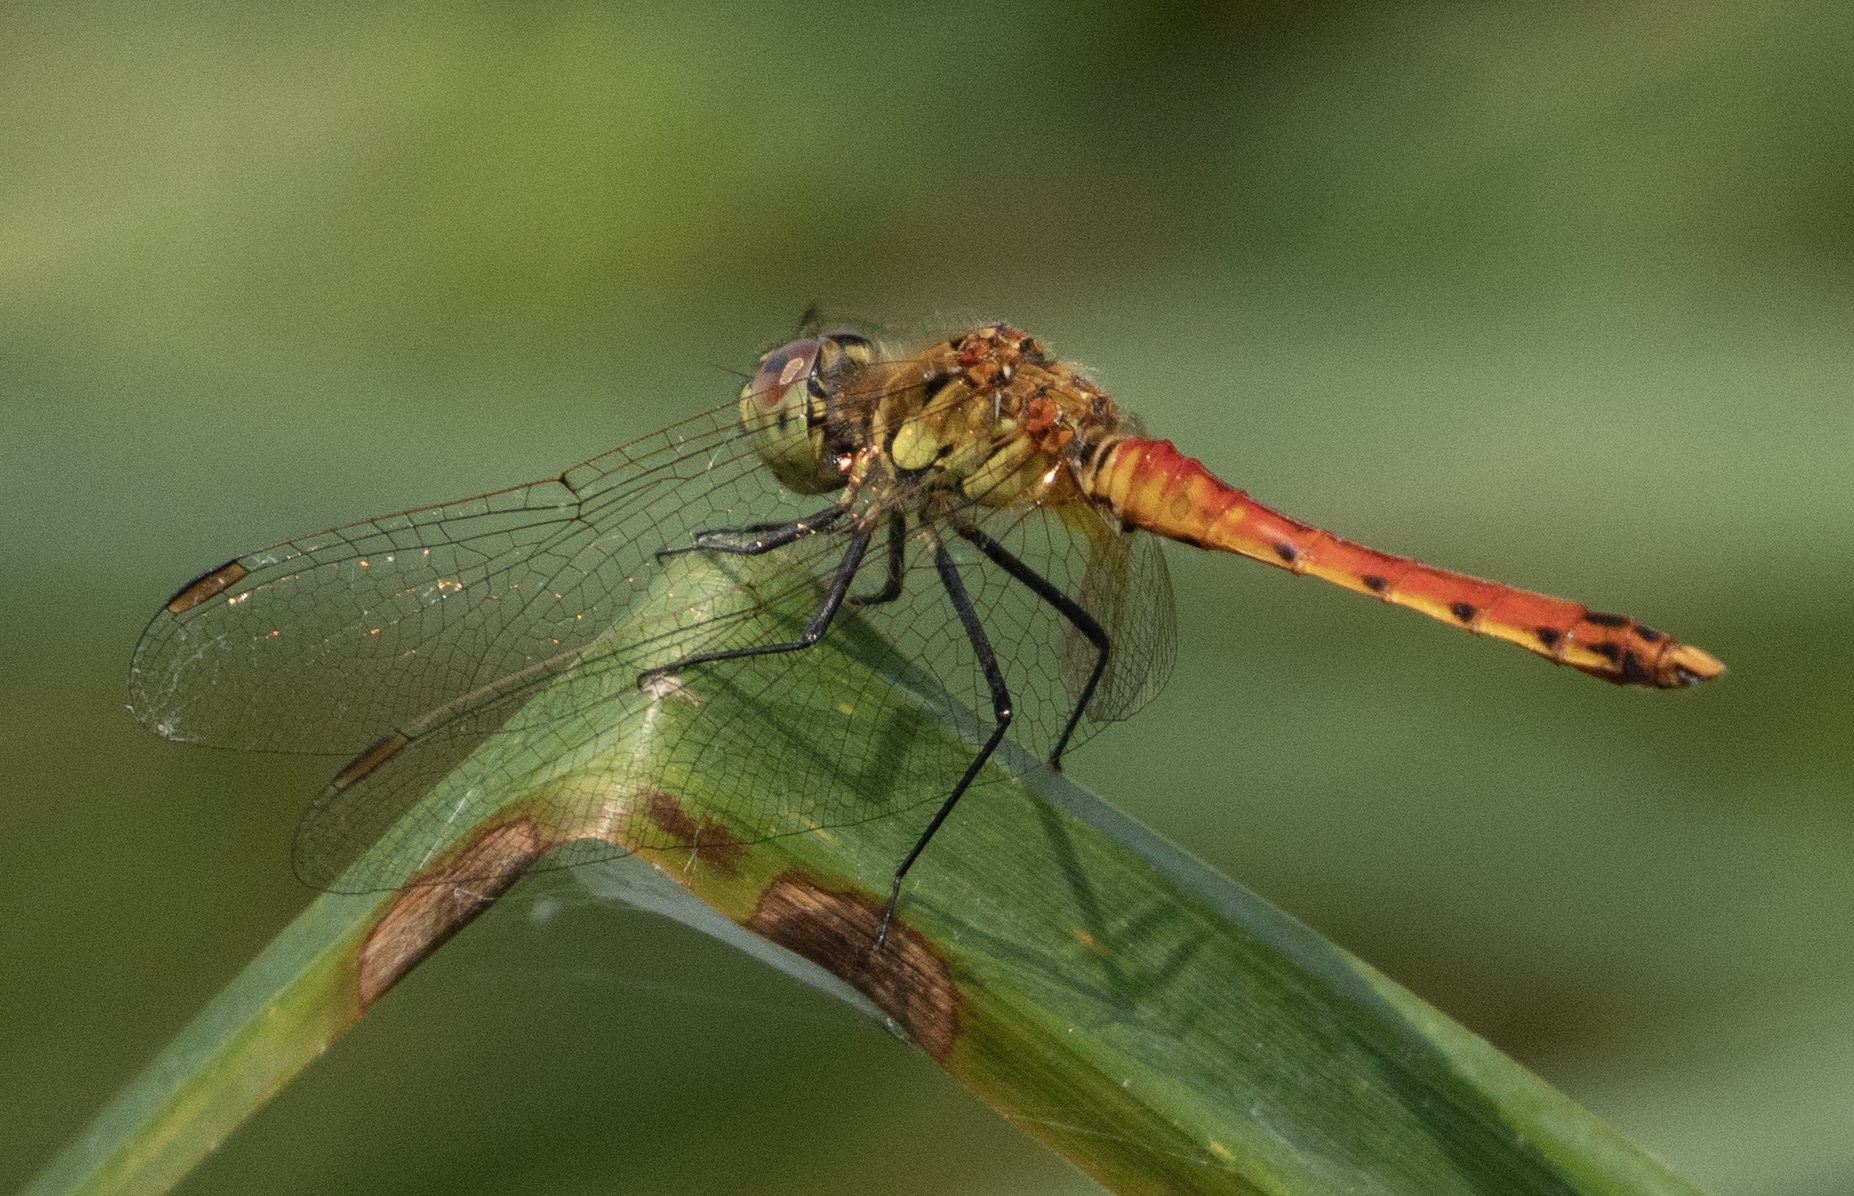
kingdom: Animalia
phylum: Arthropoda
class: Insecta
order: Odonata
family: Libellulidae
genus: Sympetrum
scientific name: Sympetrum depressiusculum
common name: Spotted darter
